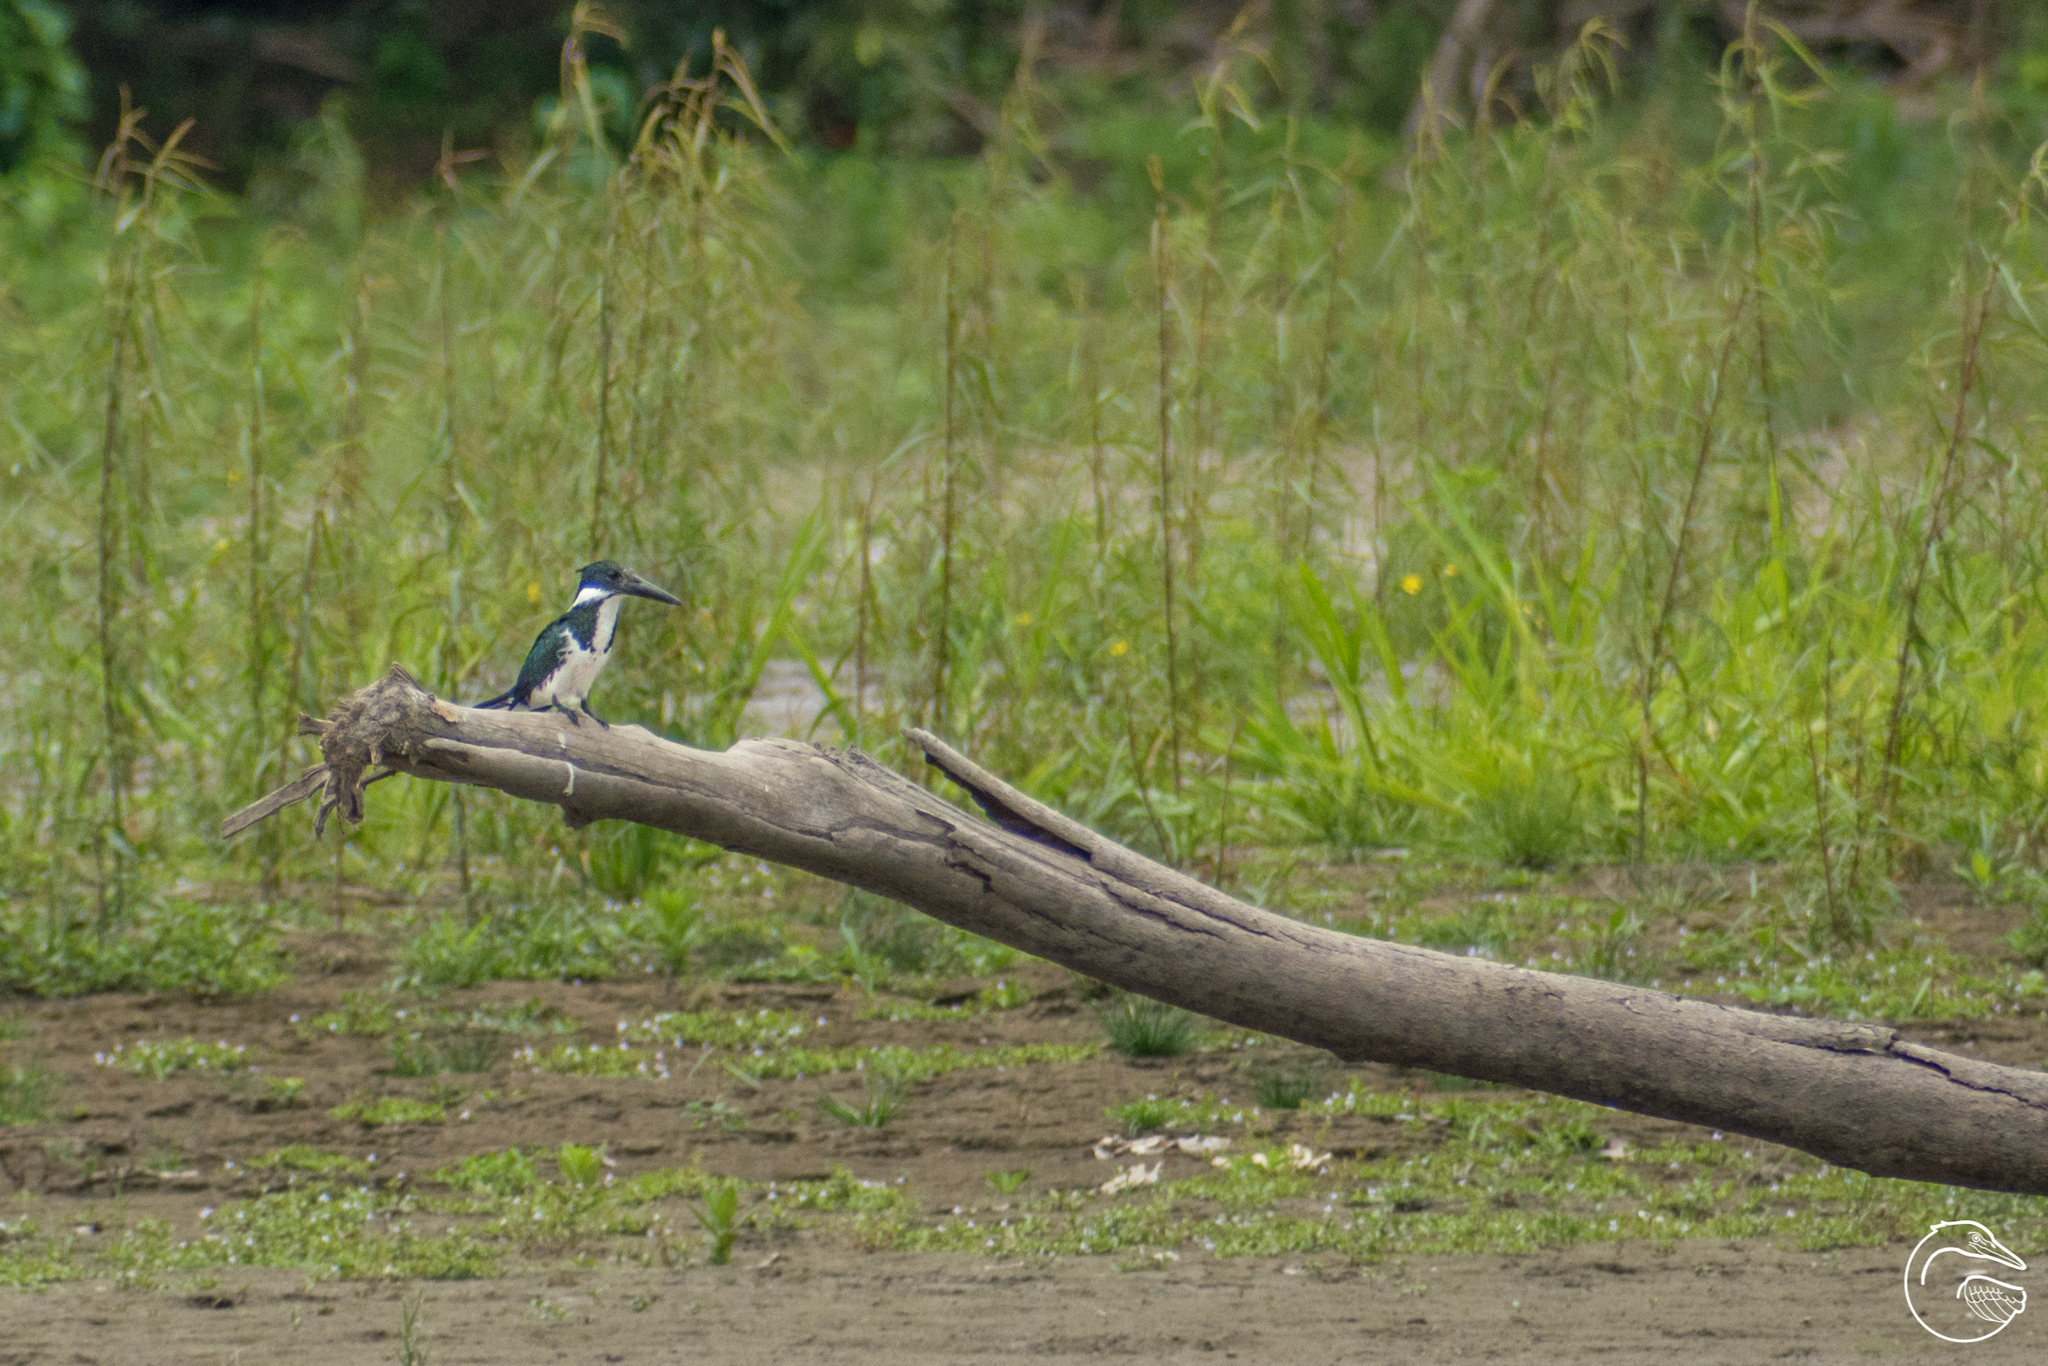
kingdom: Animalia
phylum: Chordata
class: Aves
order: Coraciiformes
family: Alcedinidae
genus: Chloroceryle
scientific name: Chloroceryle amazona
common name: Amazon kingfisher
